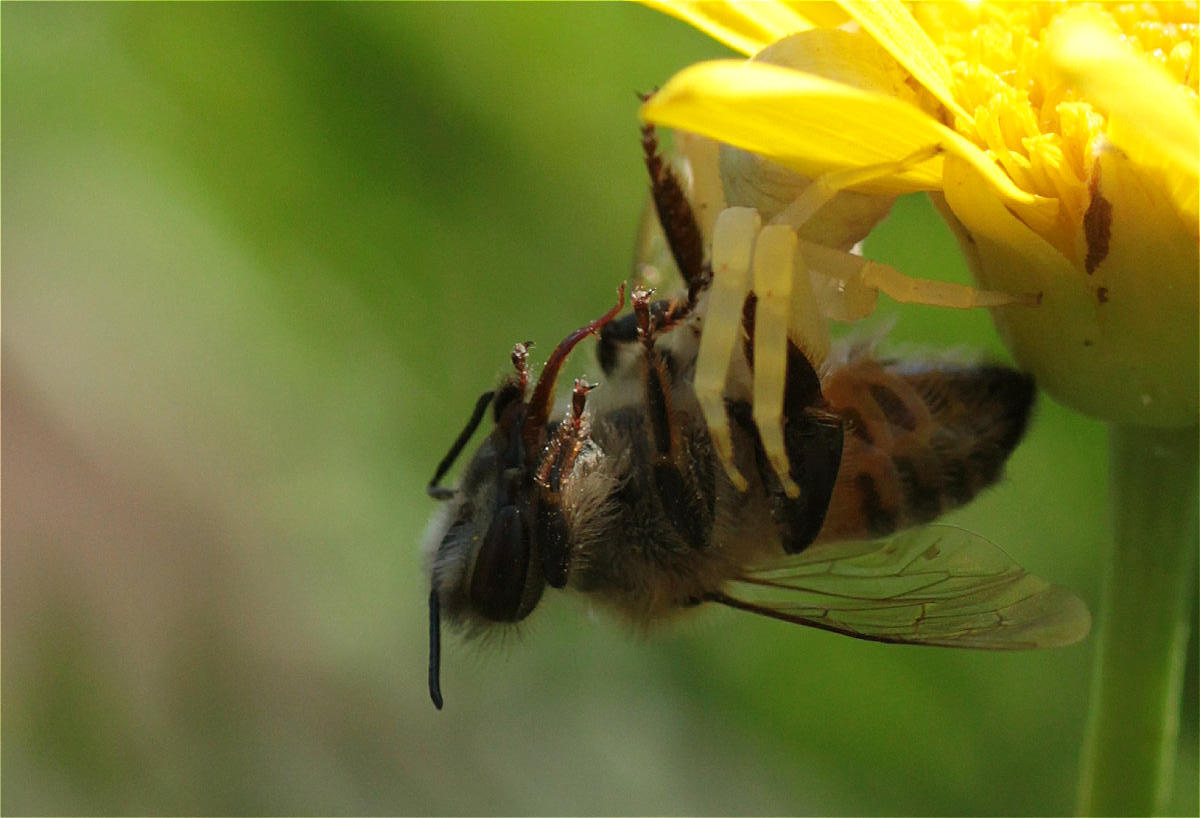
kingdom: Animalia
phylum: Arthropoda
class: Insecta
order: Hymenoptera
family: Apidae
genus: Apis
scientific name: Apis mellifera
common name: Honey bee
